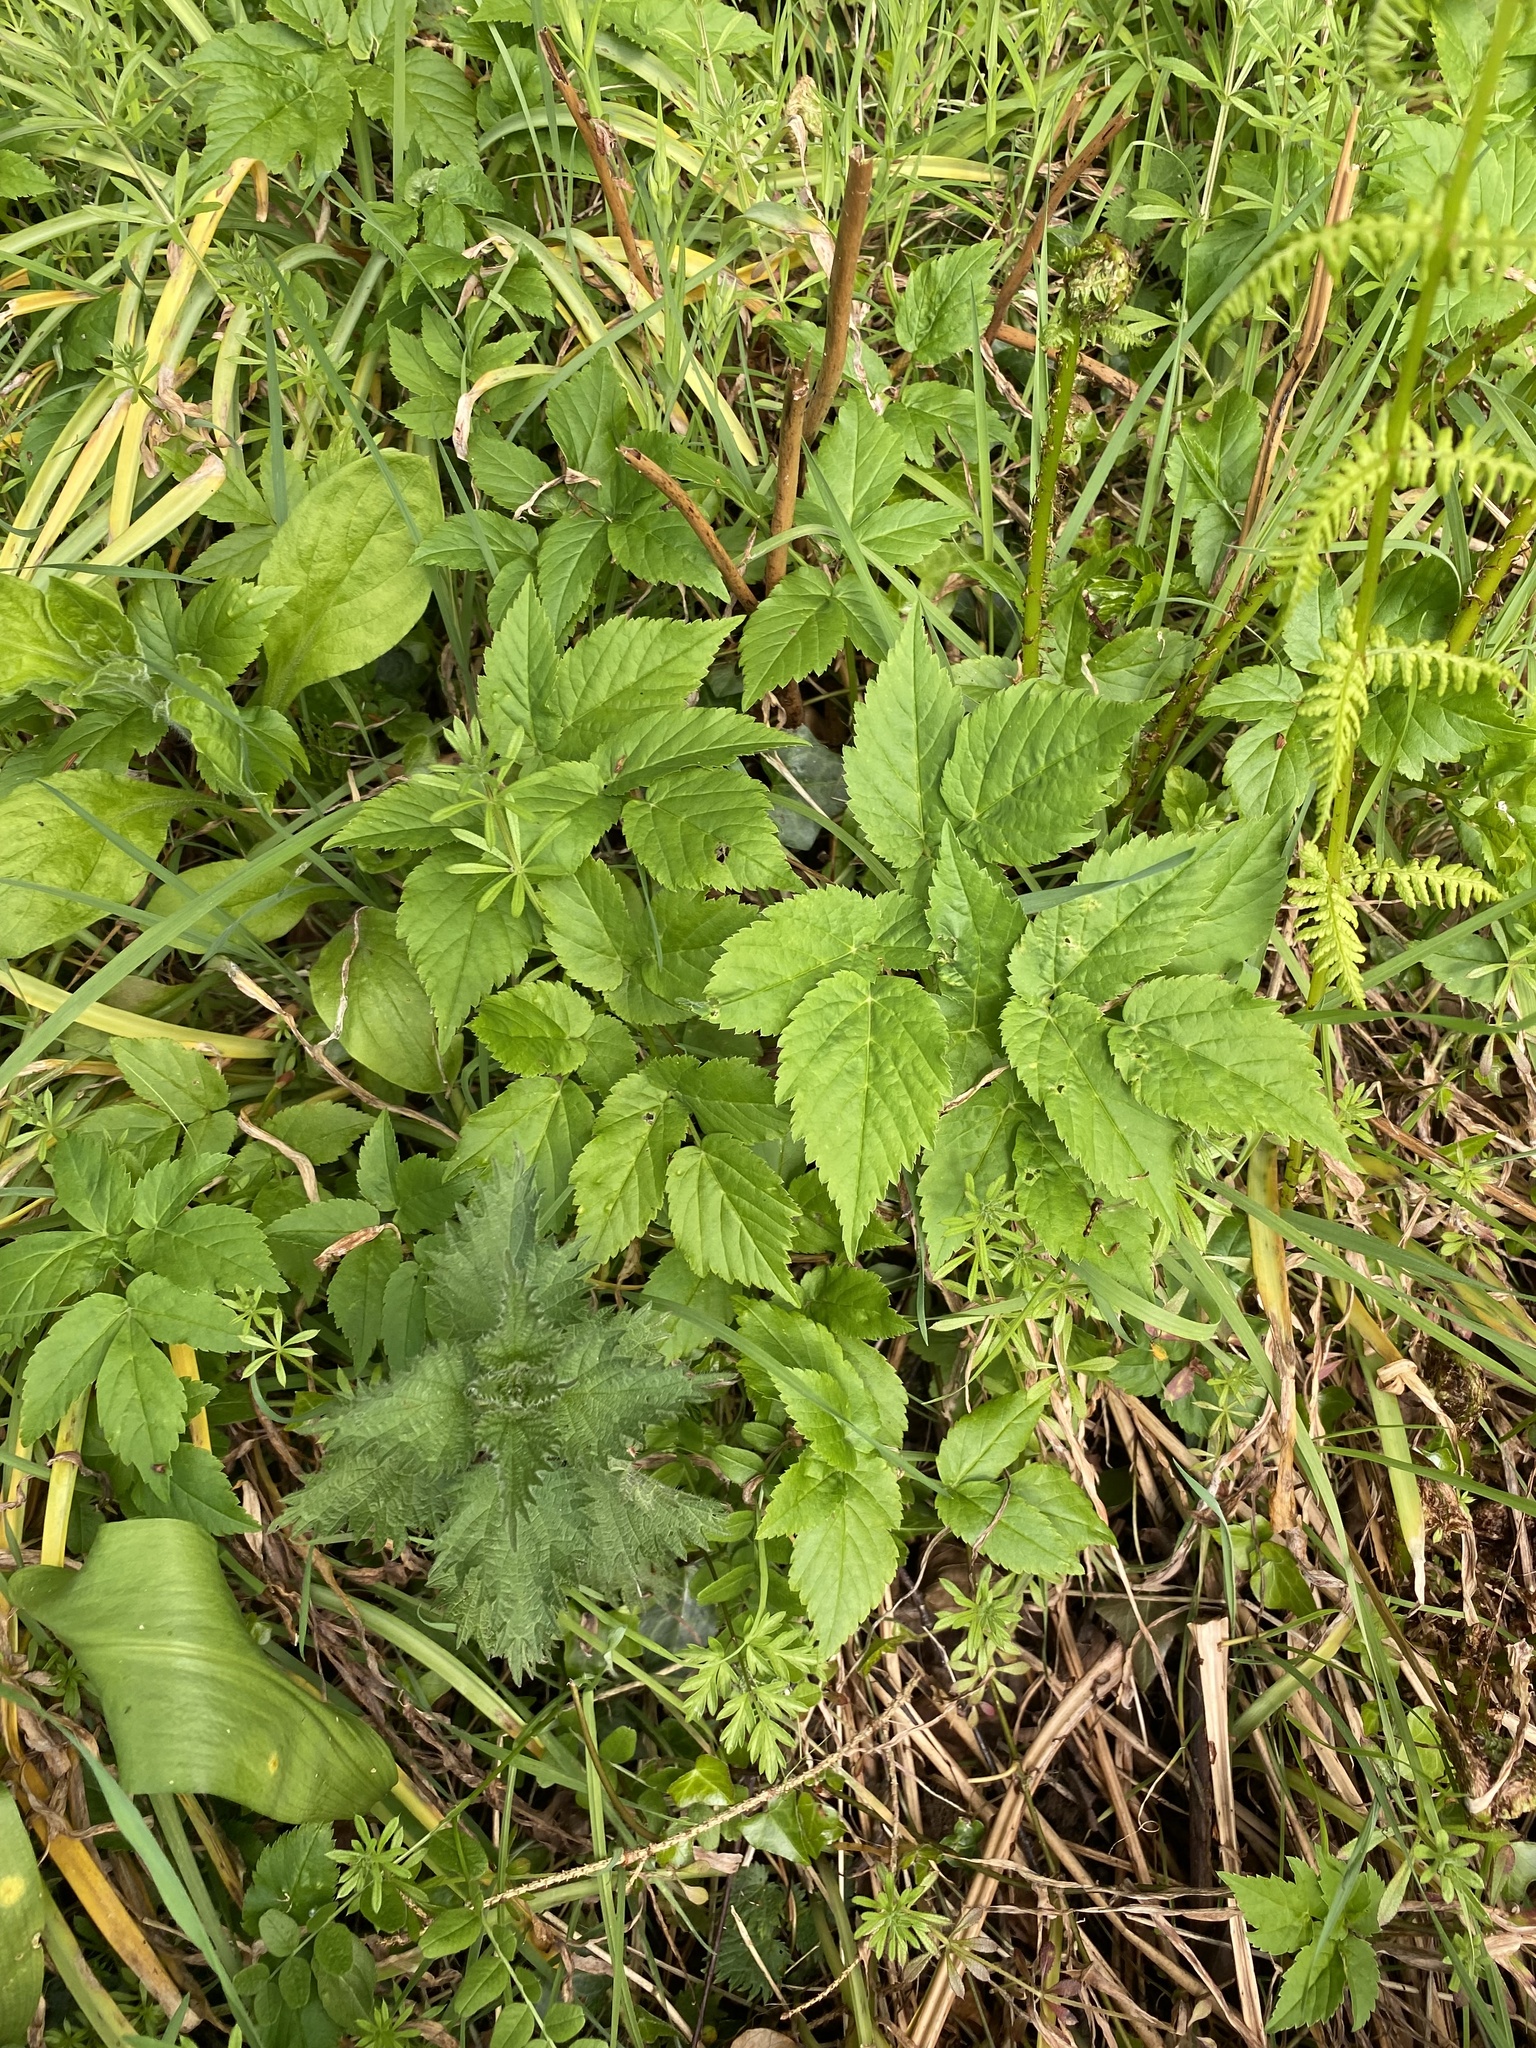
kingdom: Plantae
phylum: Tracheophyta
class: Magnoliopsida
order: Apiales
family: Apiaceae
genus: Aegopodium
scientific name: Aegopodium podagraria
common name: Ground-elder
